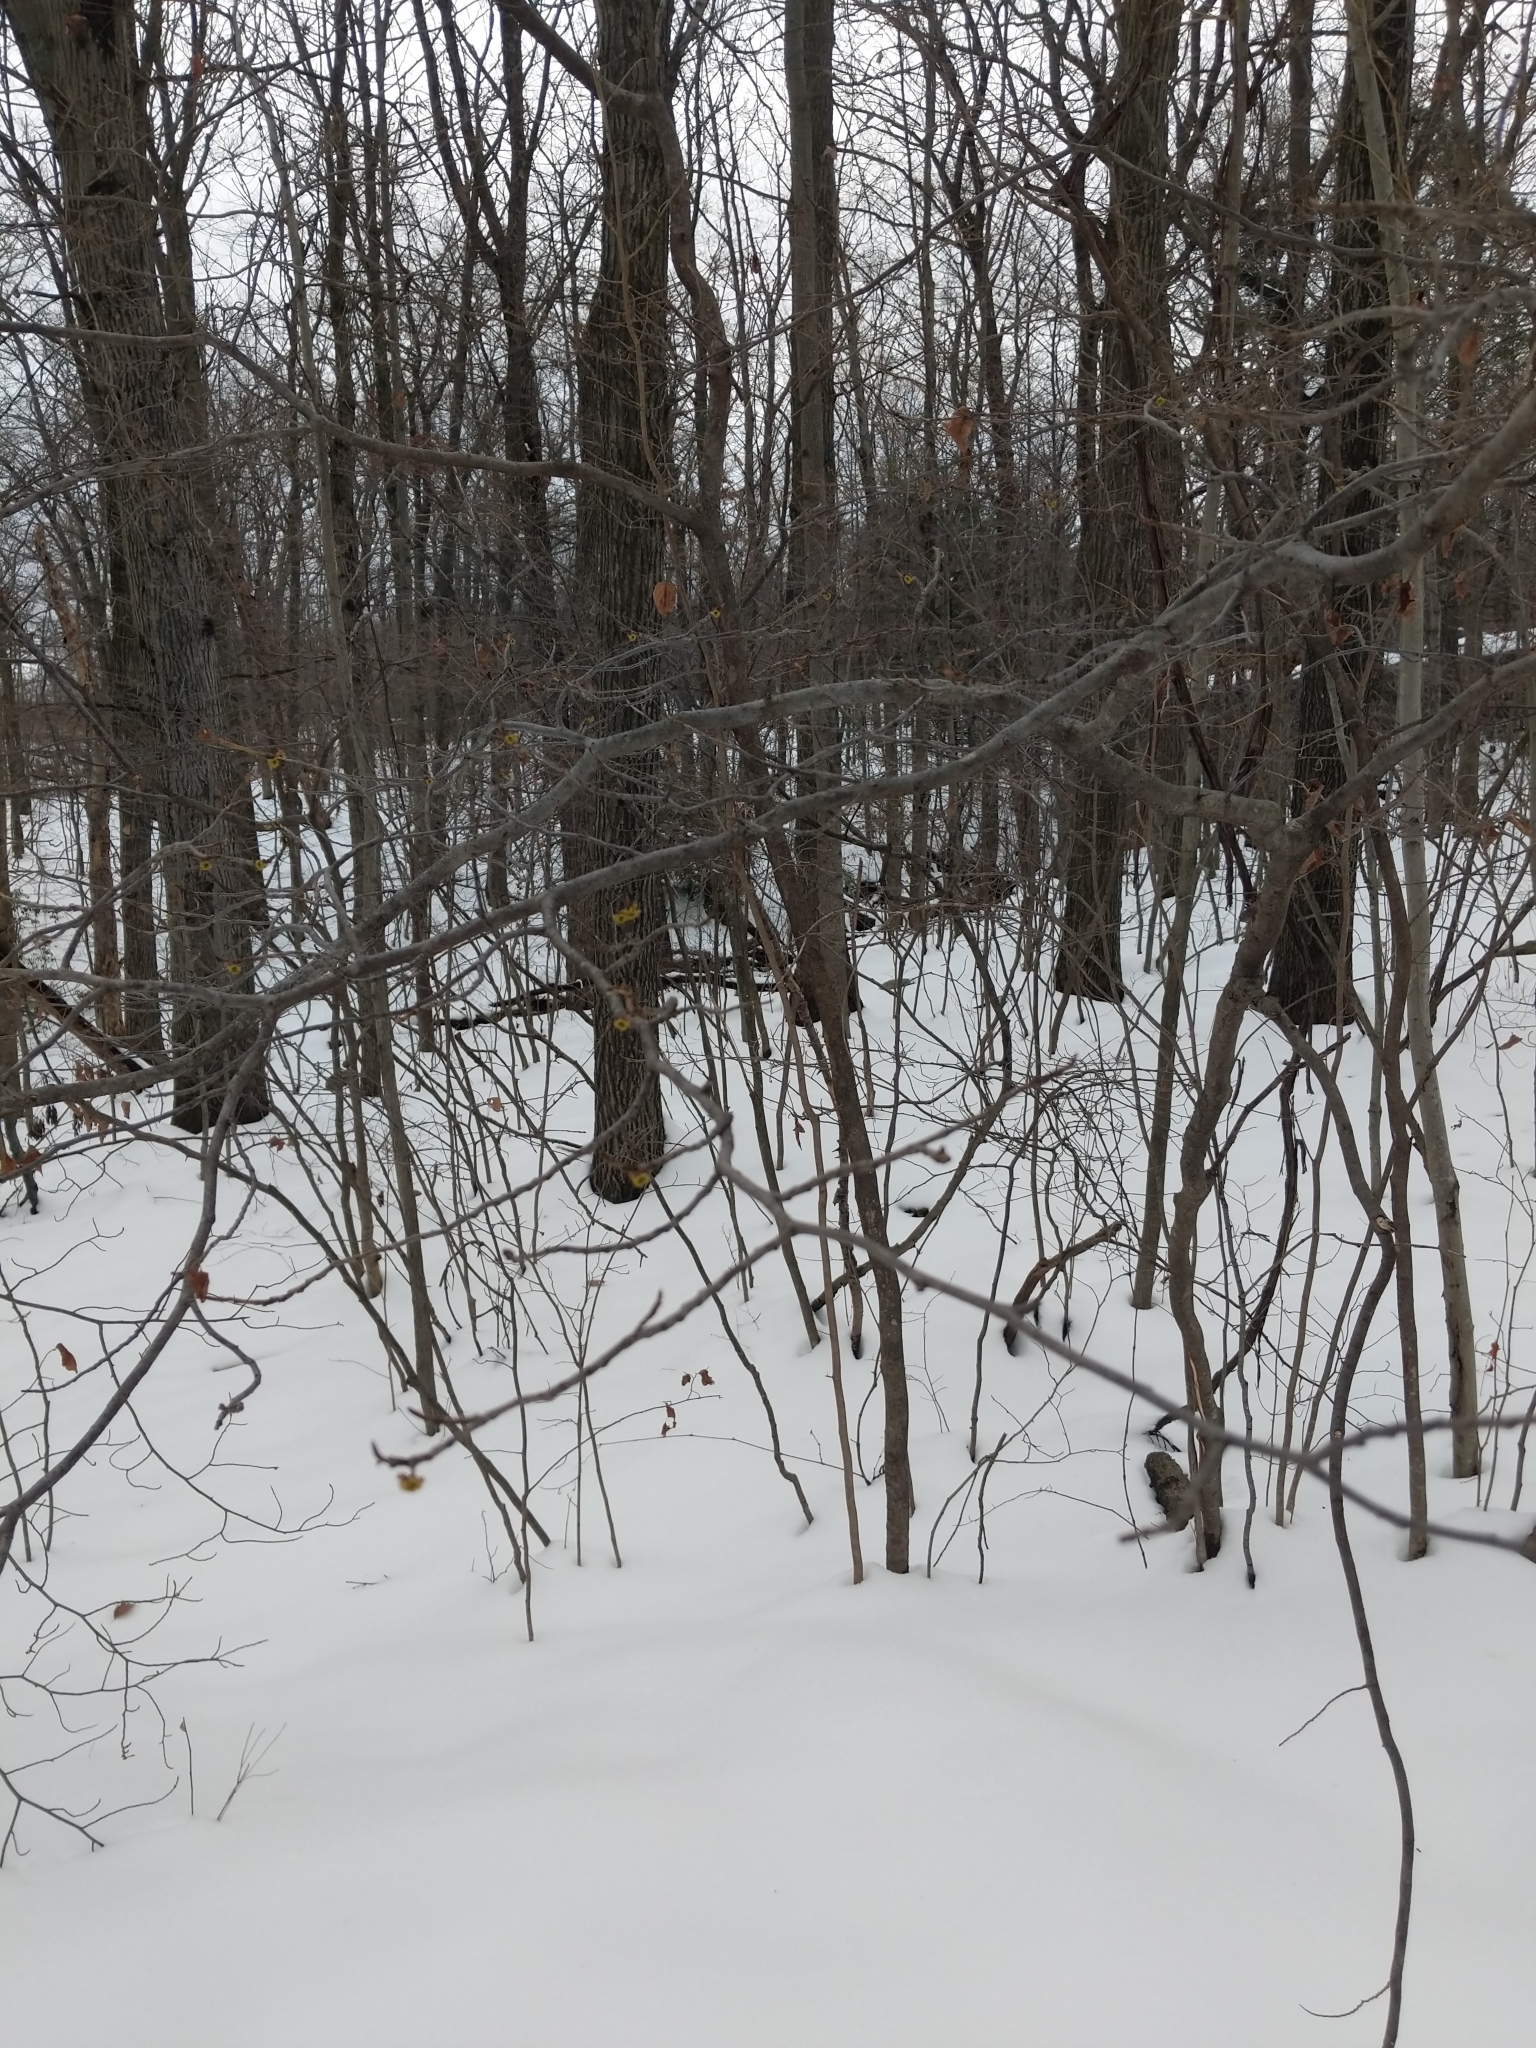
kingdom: Plantae
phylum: Tracheophyta
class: Magnoliopsida
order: Saxifragales
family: Hamamelidaceae
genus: Hamamelis
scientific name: Hamamelis virginiana
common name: Witch-hazel
